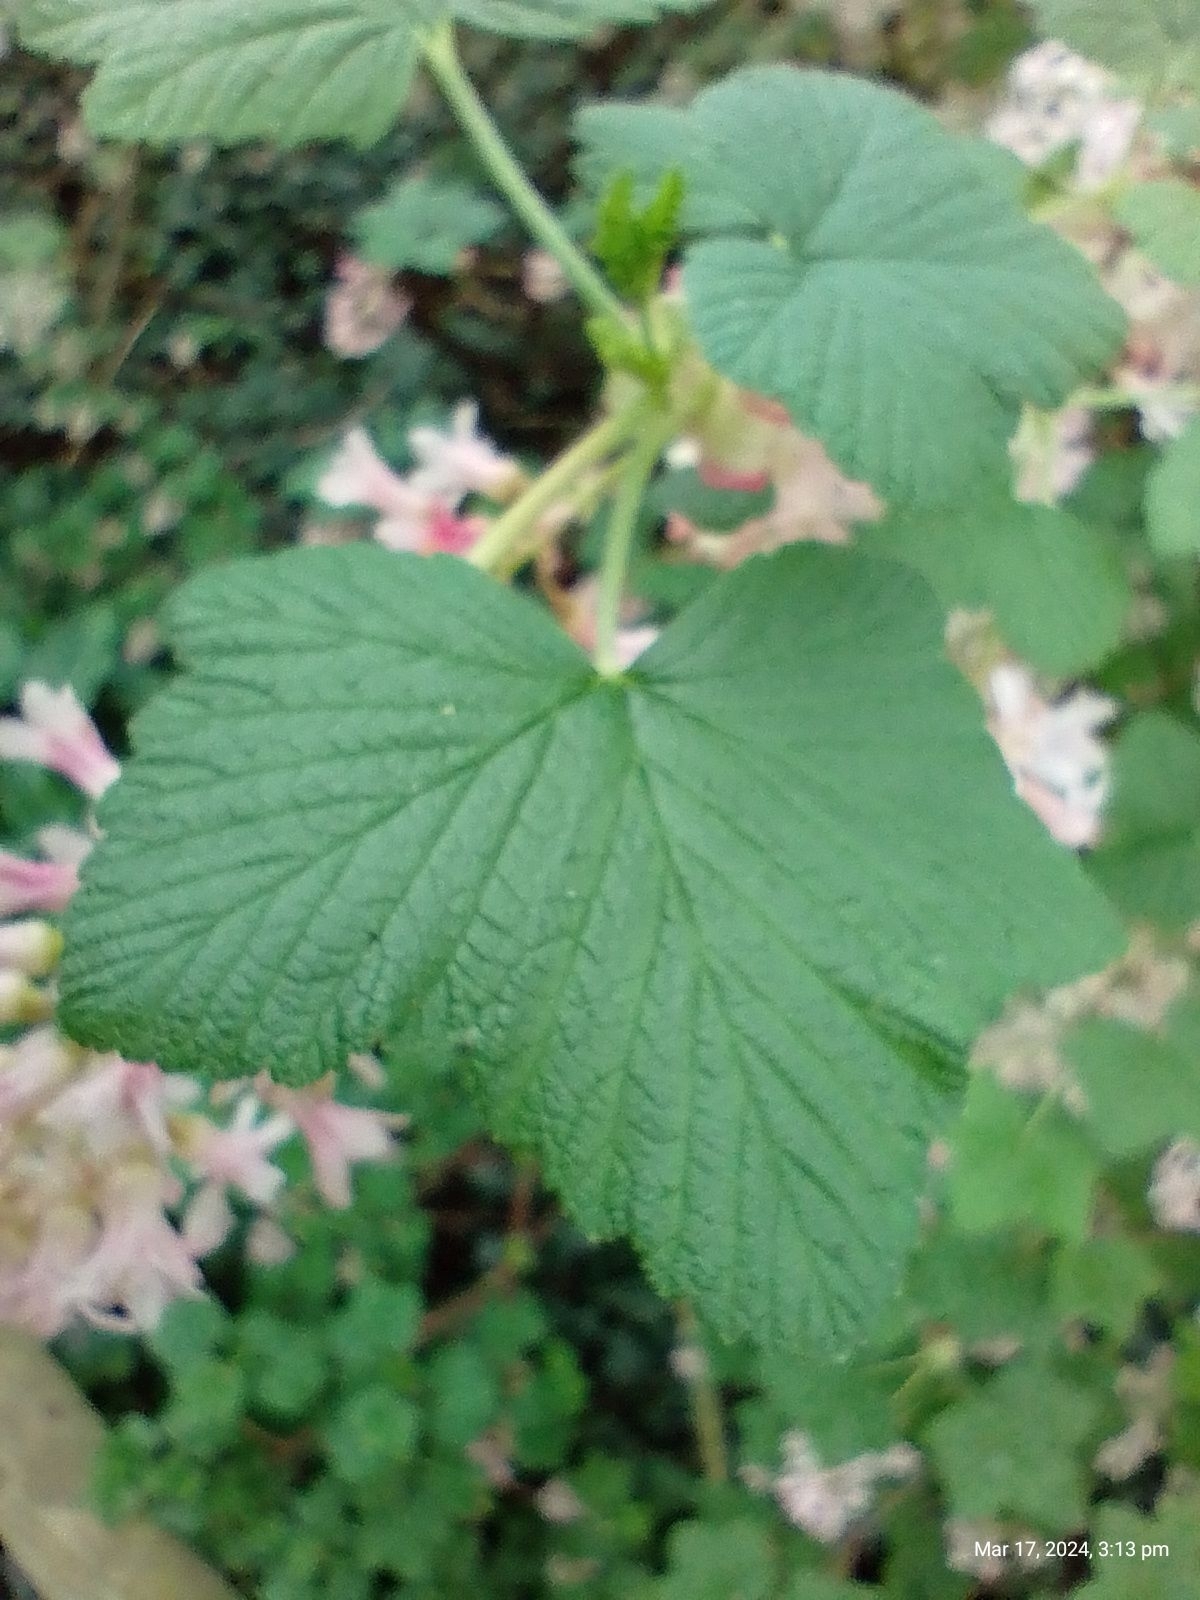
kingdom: Plantae
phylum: Tracheophyta
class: Magnoliopsida
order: Saxifragales
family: Grossulariaceae
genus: Ribes
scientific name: Ribes sanguineum
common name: Flowering currant
